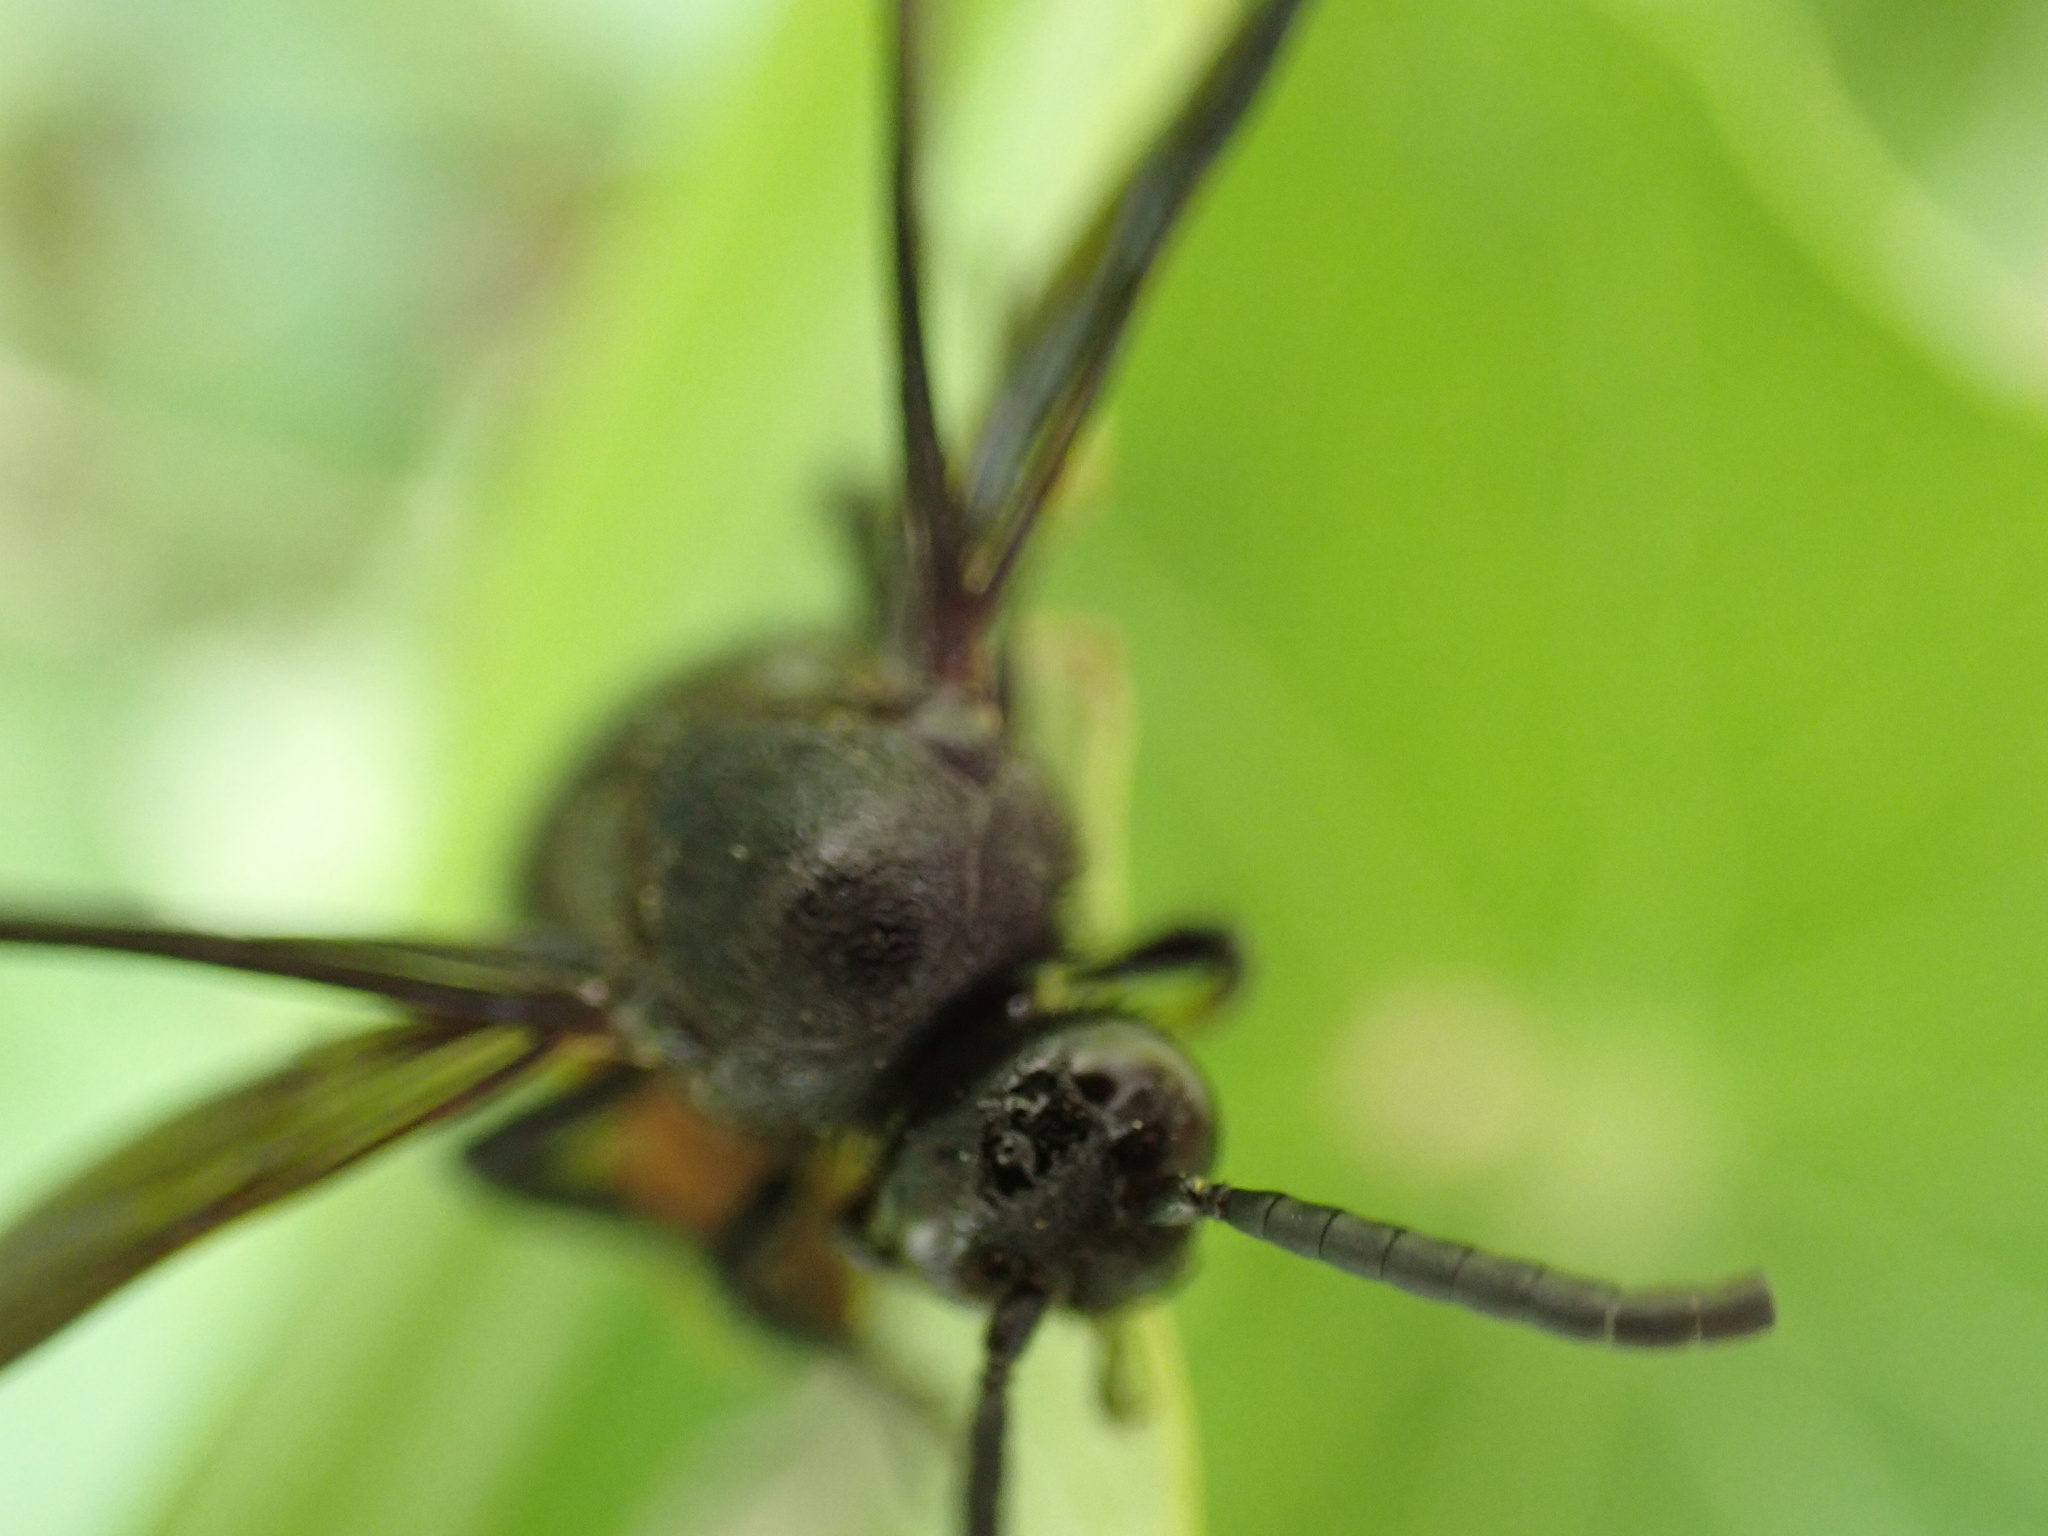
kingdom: Animalia
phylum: Arthropoda
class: Insecta
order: Hymenoptera
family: Scoliidae
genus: Scolia
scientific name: Scolia dubia
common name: Blue-winged scoliid wasp
